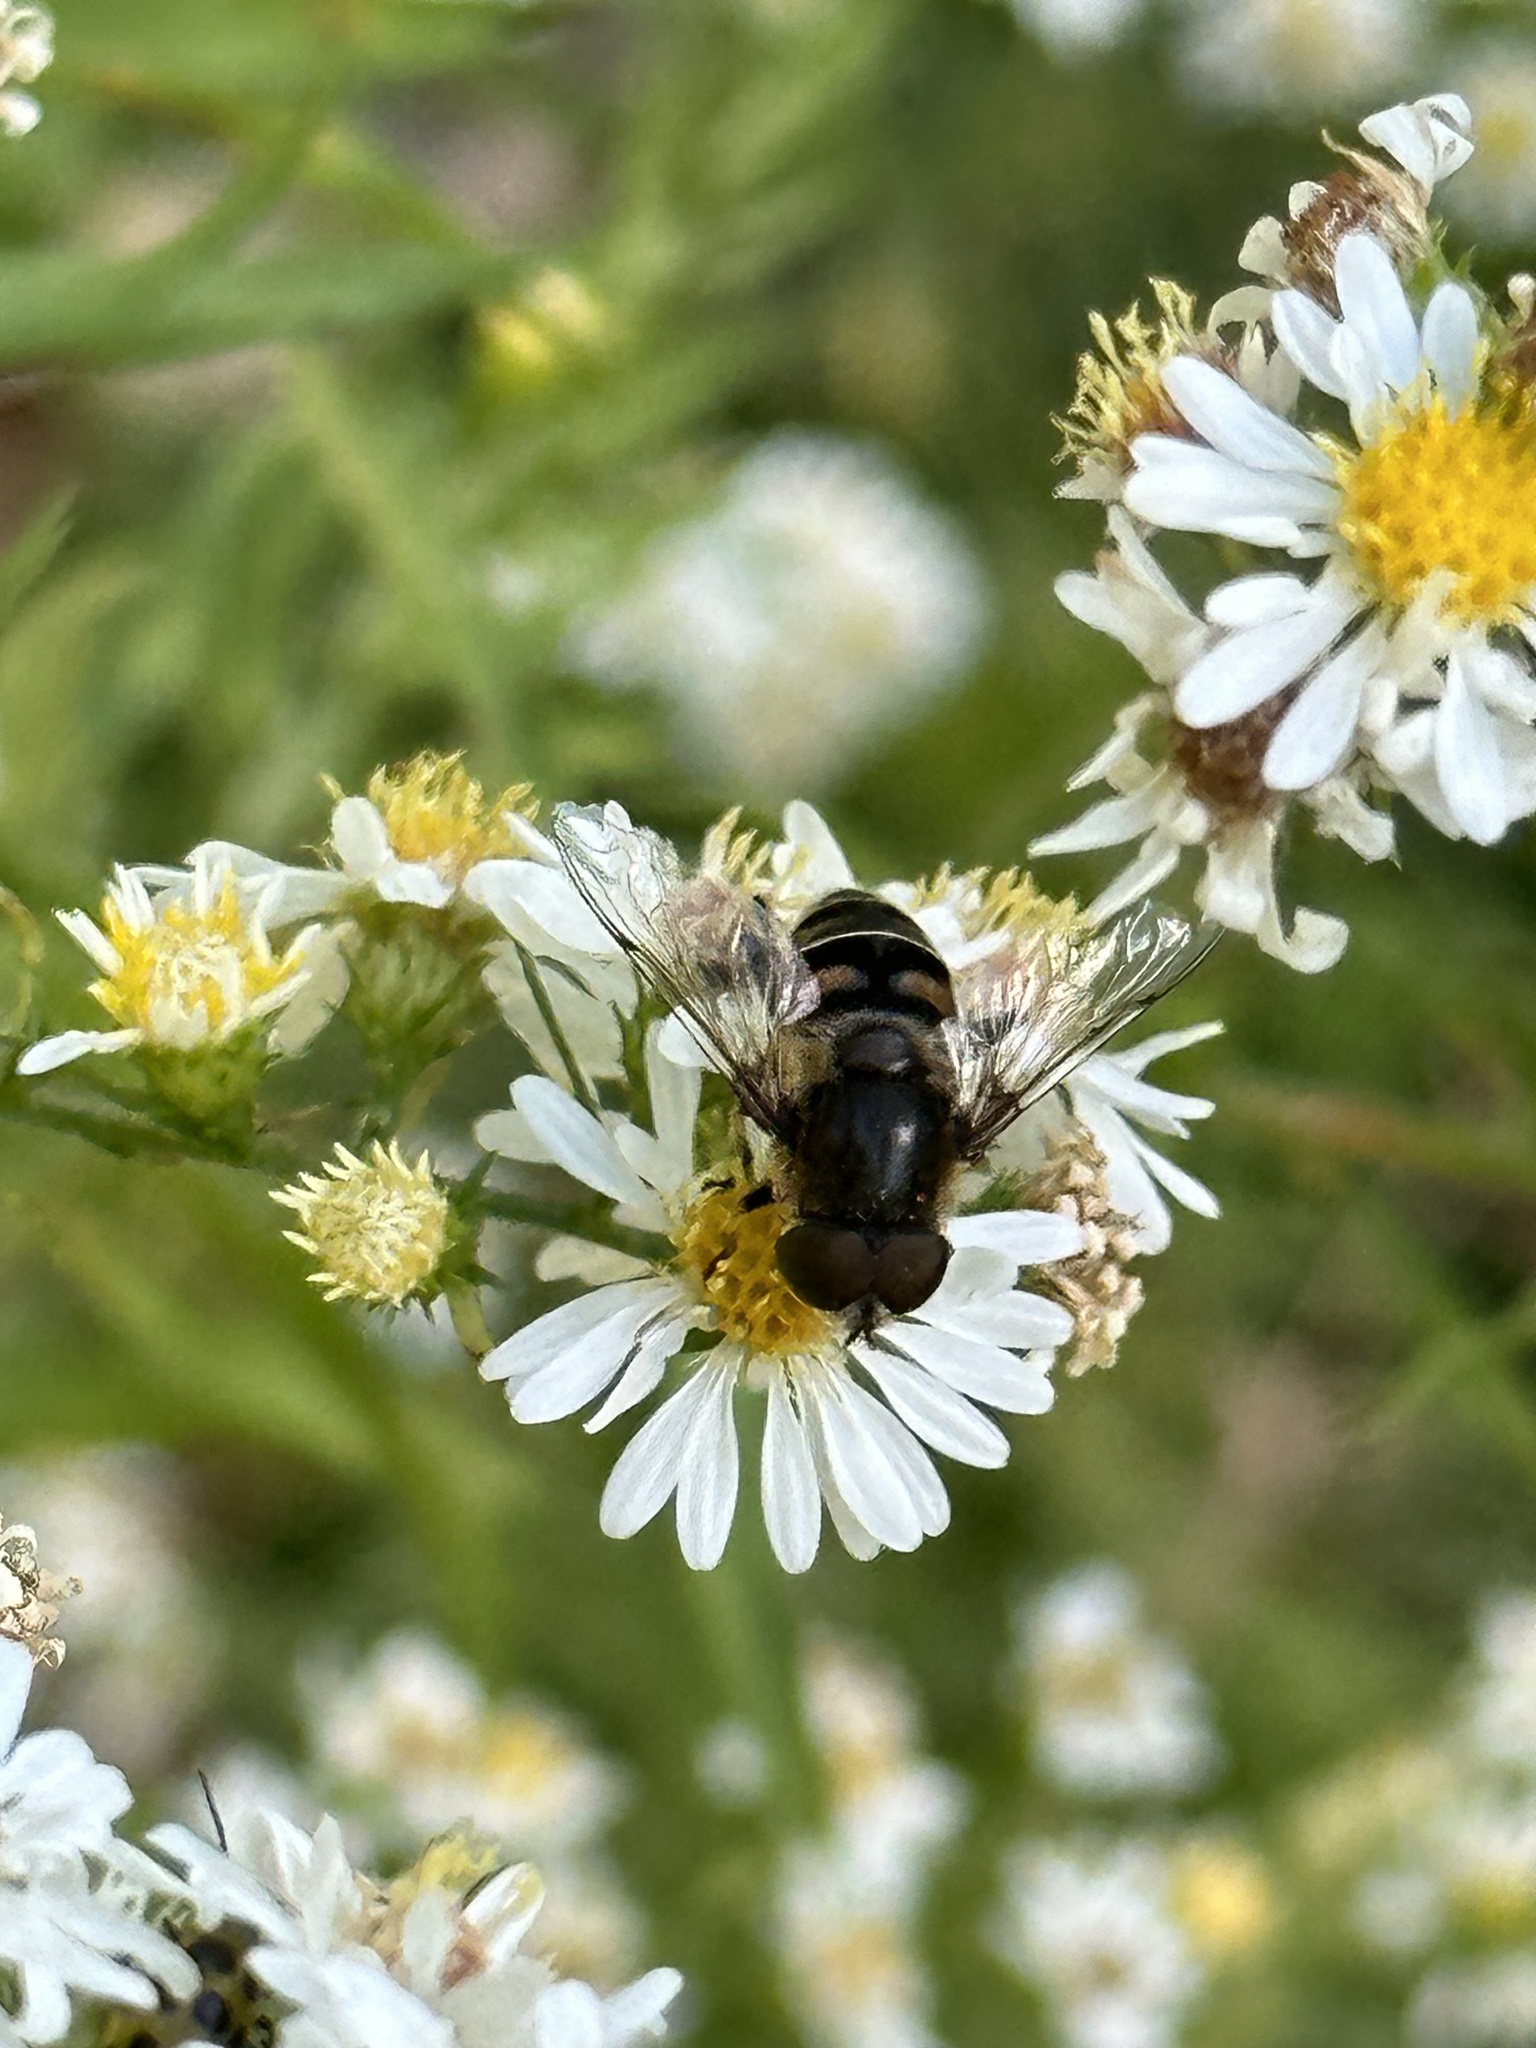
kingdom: Animalia
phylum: Arthropoda
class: Insecta
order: Diptera
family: Syrphidae
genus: Eristalis
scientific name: Eristalis dimidiata
